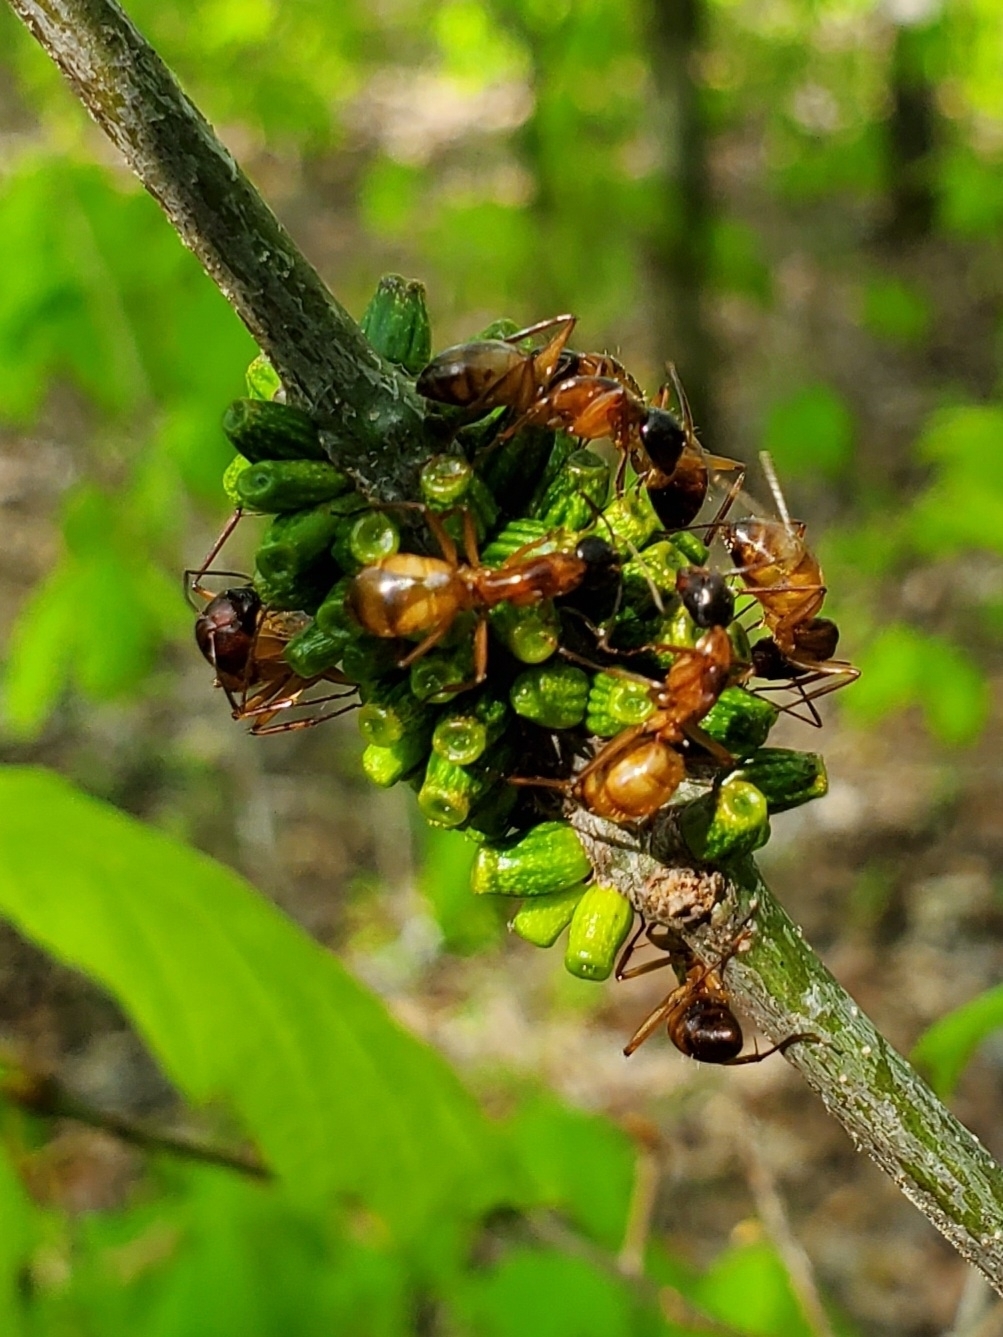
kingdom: Animalia
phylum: Arthropoda
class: Insecta
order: Hymenoptera
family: Formicidae
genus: Camponotus
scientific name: Camponotus americanus
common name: American carpenter ant
